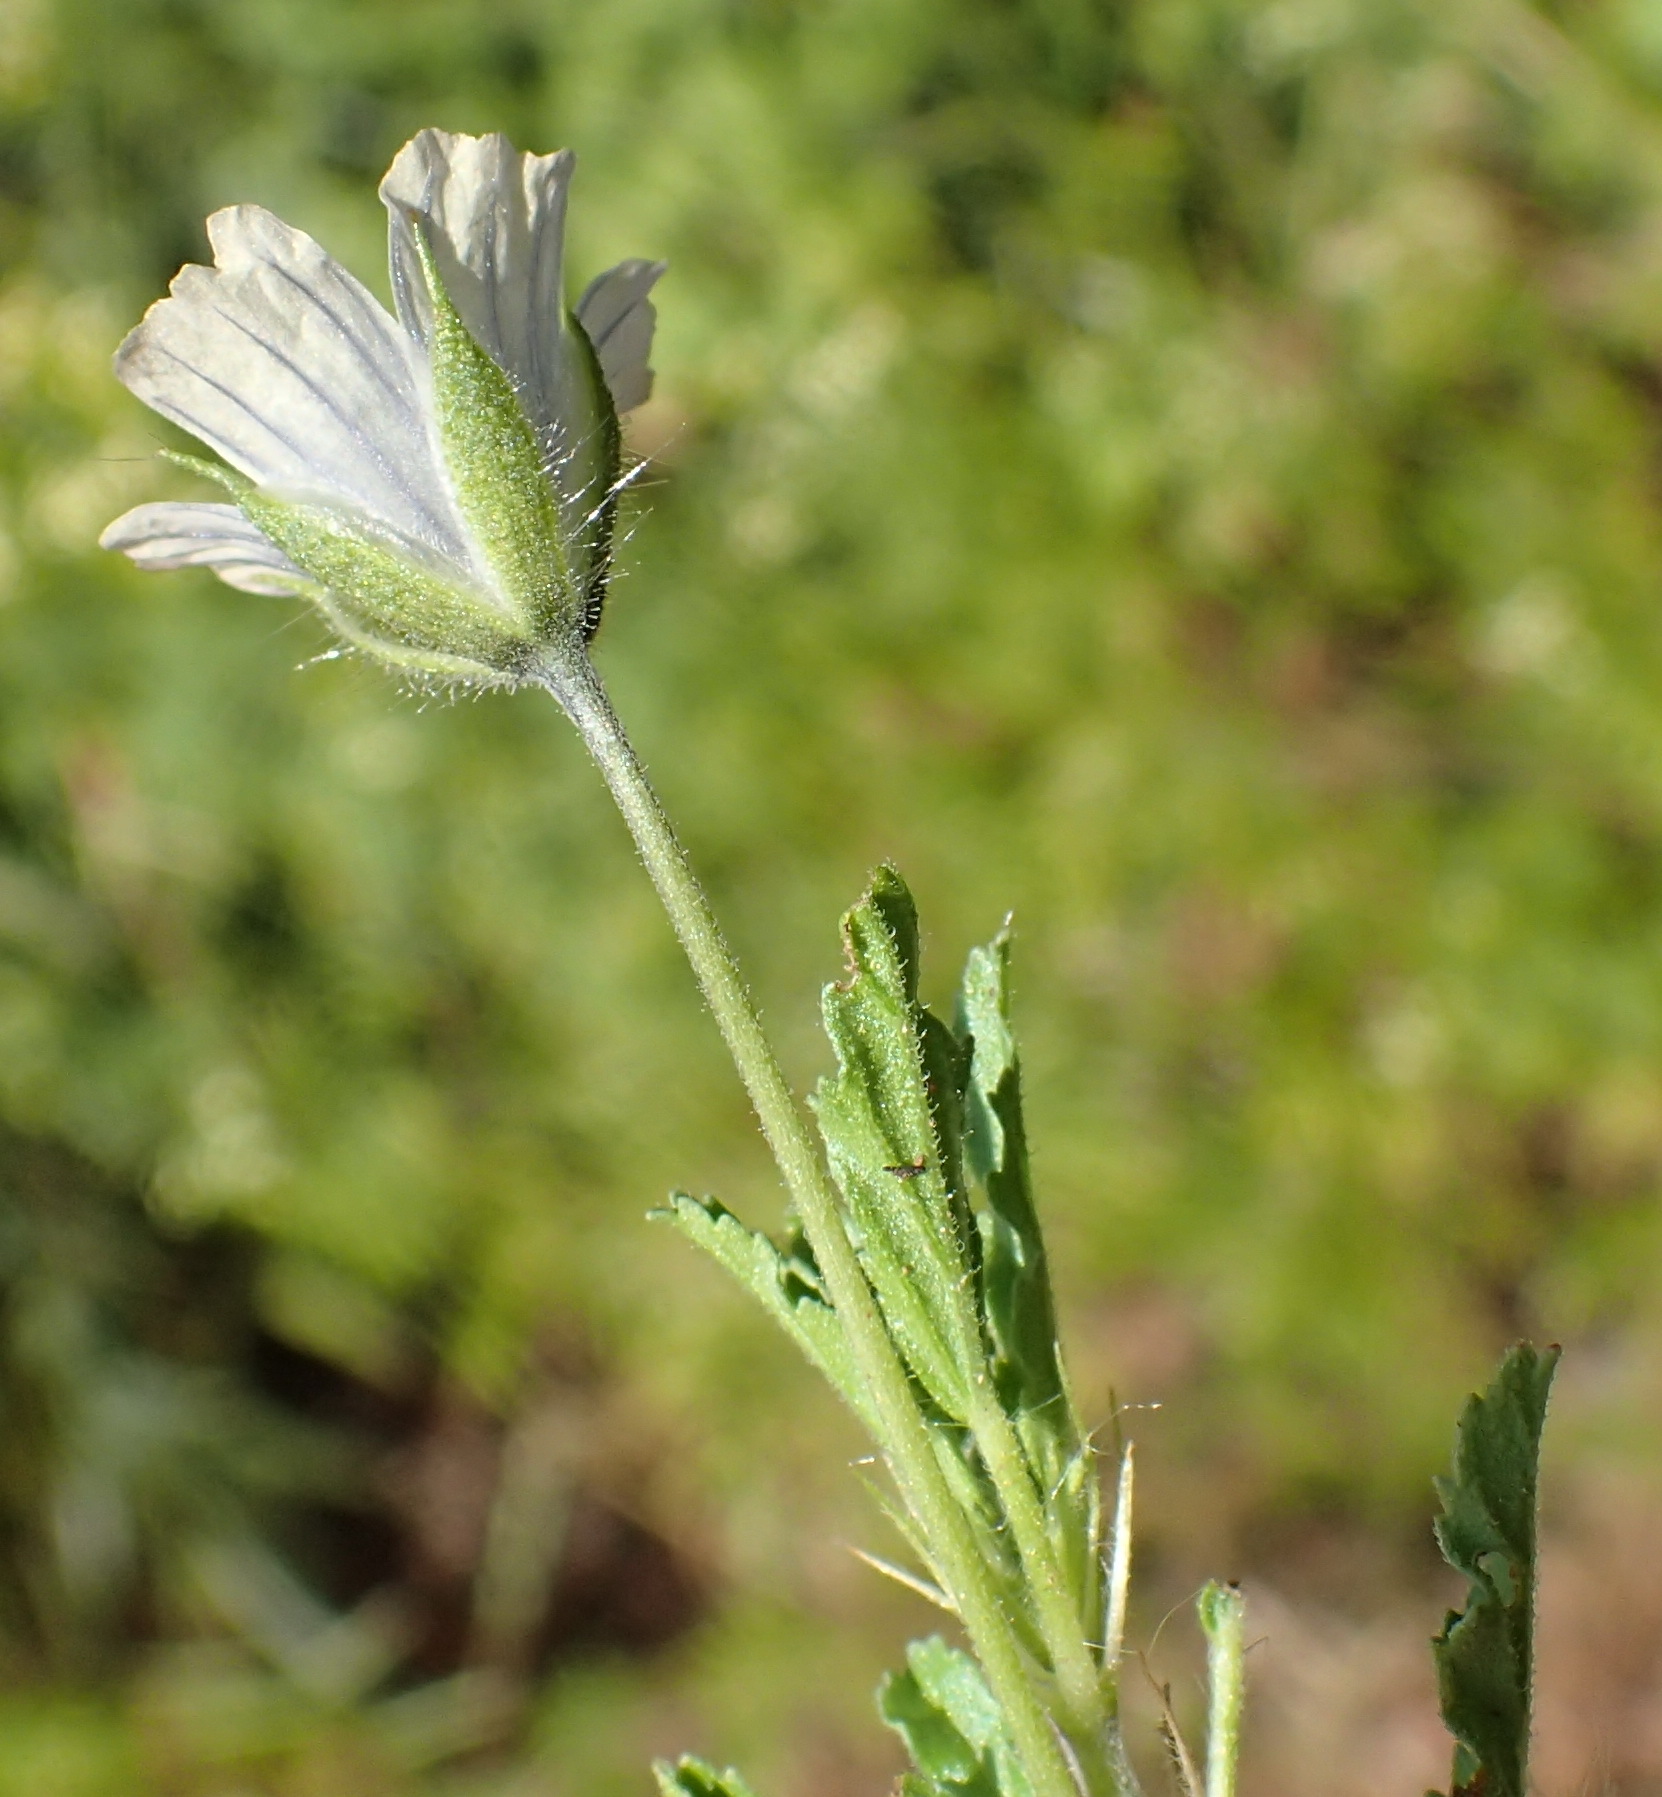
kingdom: Plantae
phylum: Tracheophyta
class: Magnoliopsida
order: Geraniales
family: Geraniaceae
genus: Monsonia
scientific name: Monsonia angustifolia
